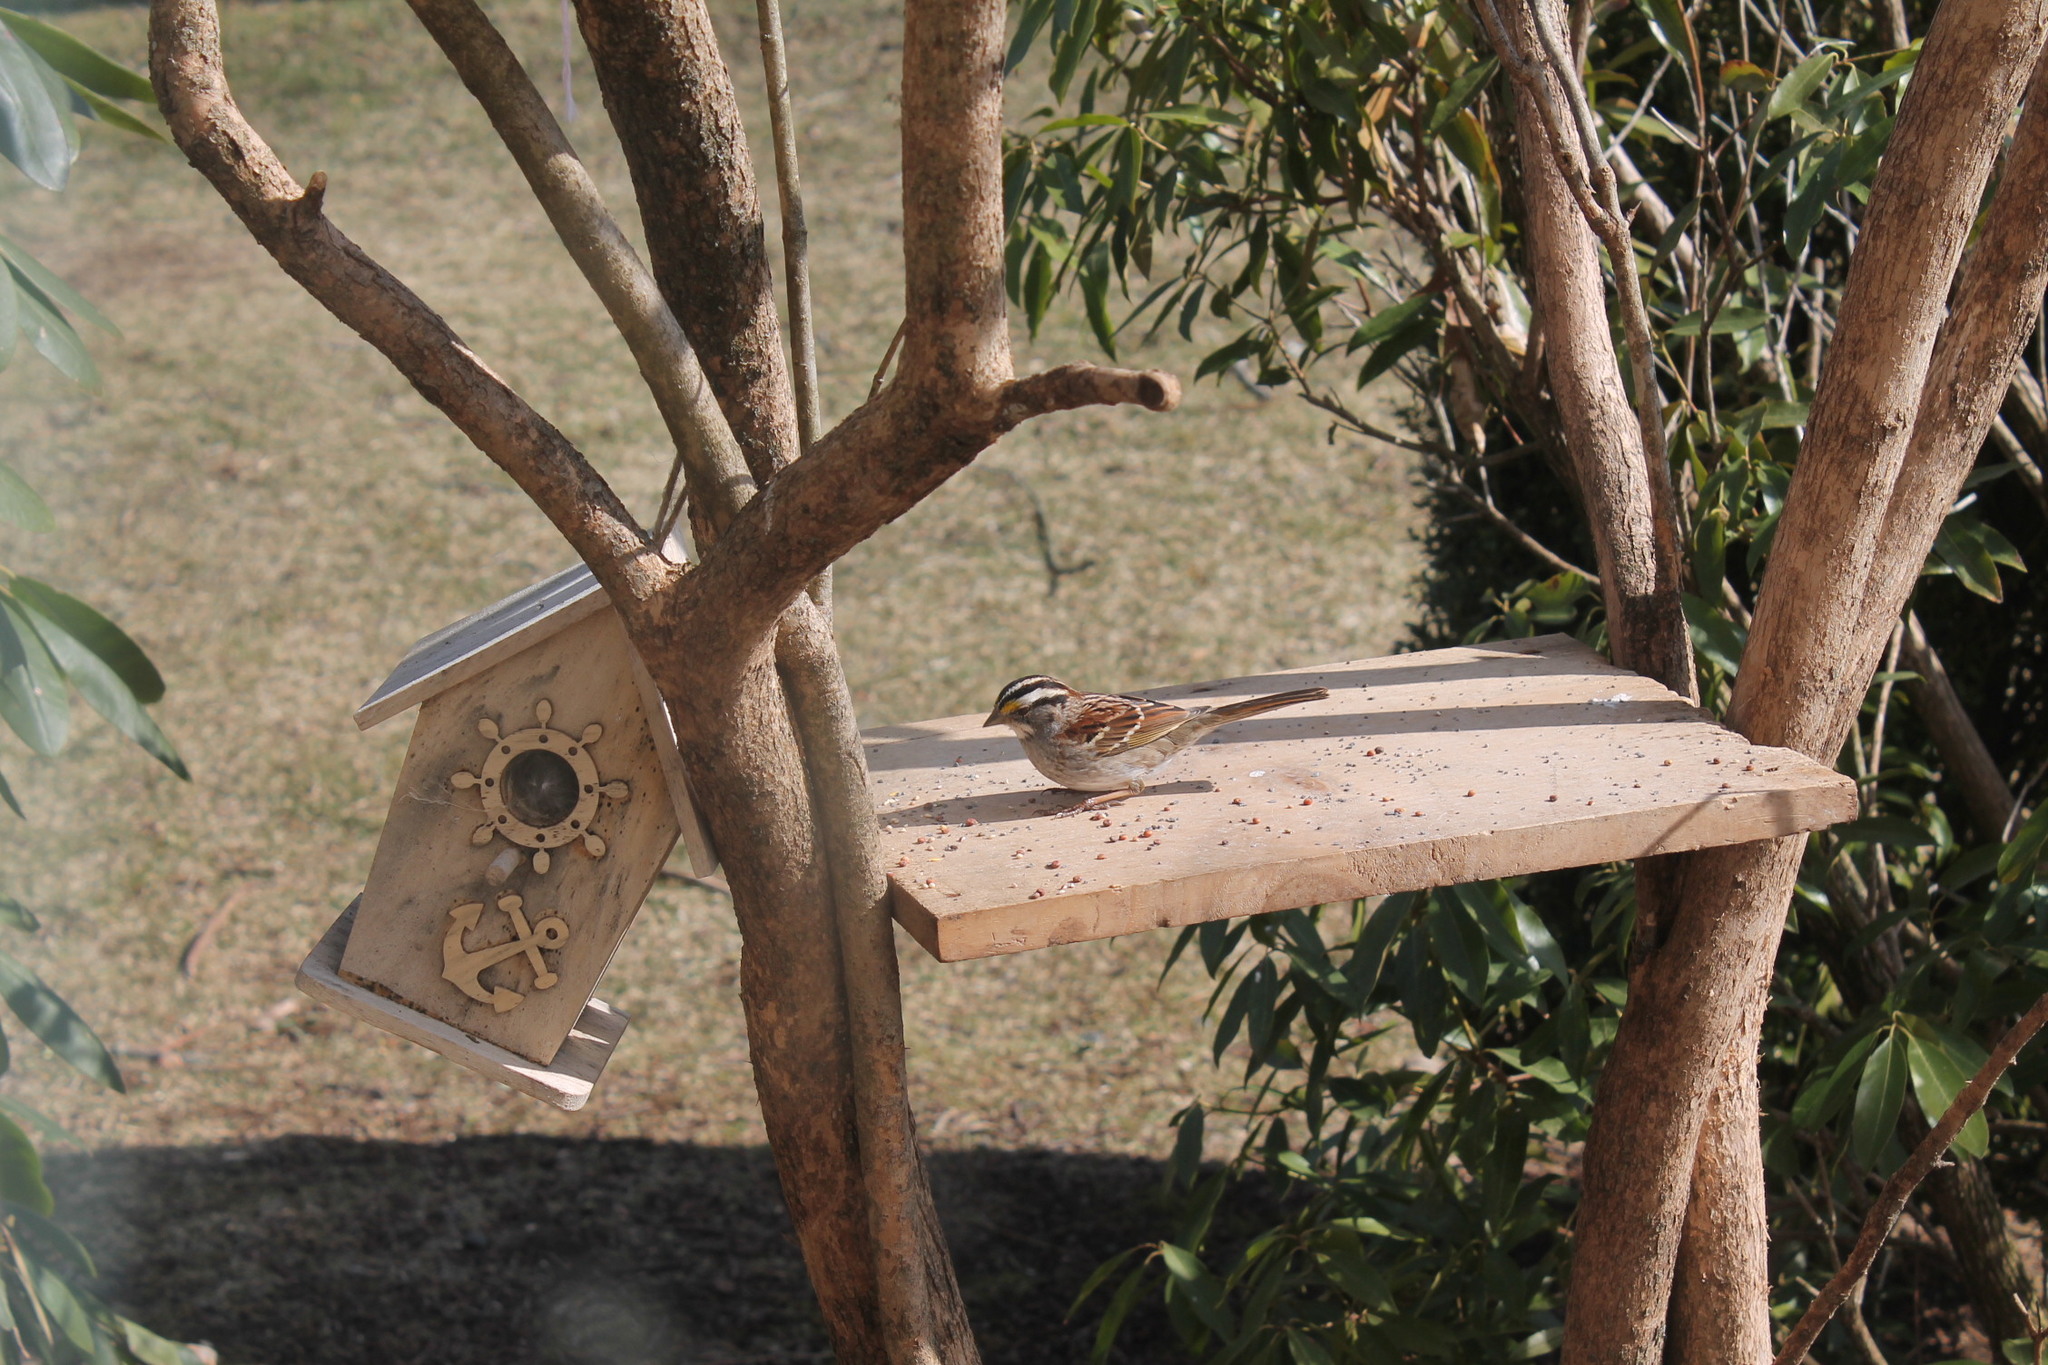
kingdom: Animalia
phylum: Chordata
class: Aves
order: Passeriformes
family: Passerellidae
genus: Zonotrichia
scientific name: Zonotrichia albicollis
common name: White-throated sparrow
